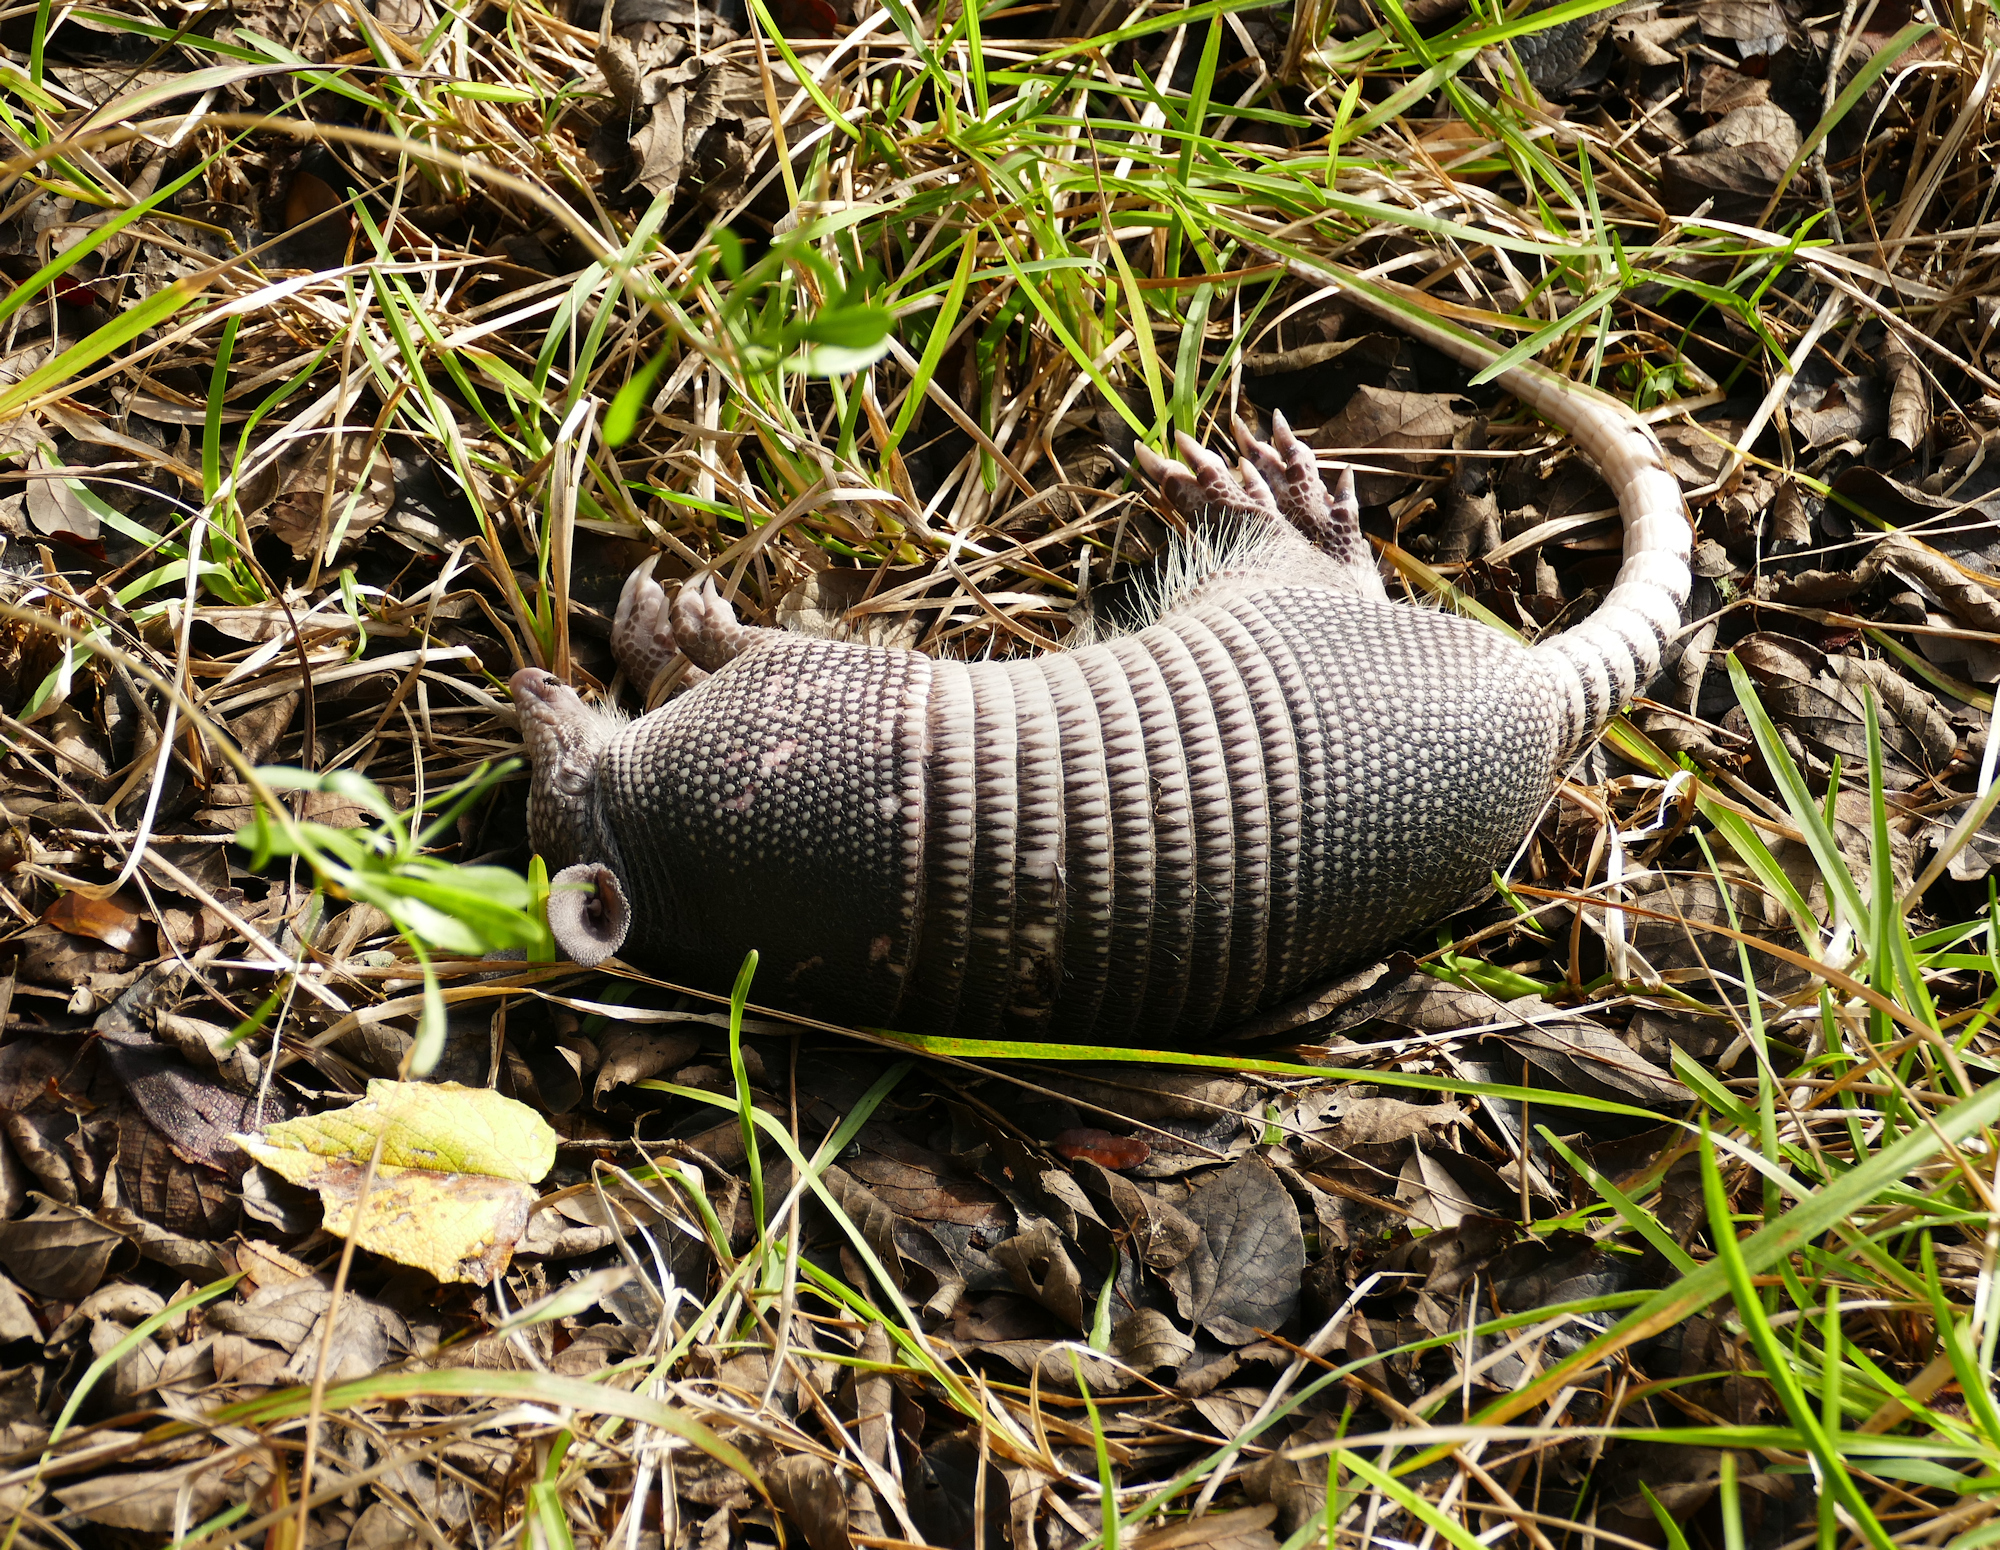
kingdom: Animalia
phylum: Chordata
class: Mammalia
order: Cingulata
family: Dasypodidae
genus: Dasypus
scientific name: Dasypus novemcinctus
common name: Nine-banded armadillo
